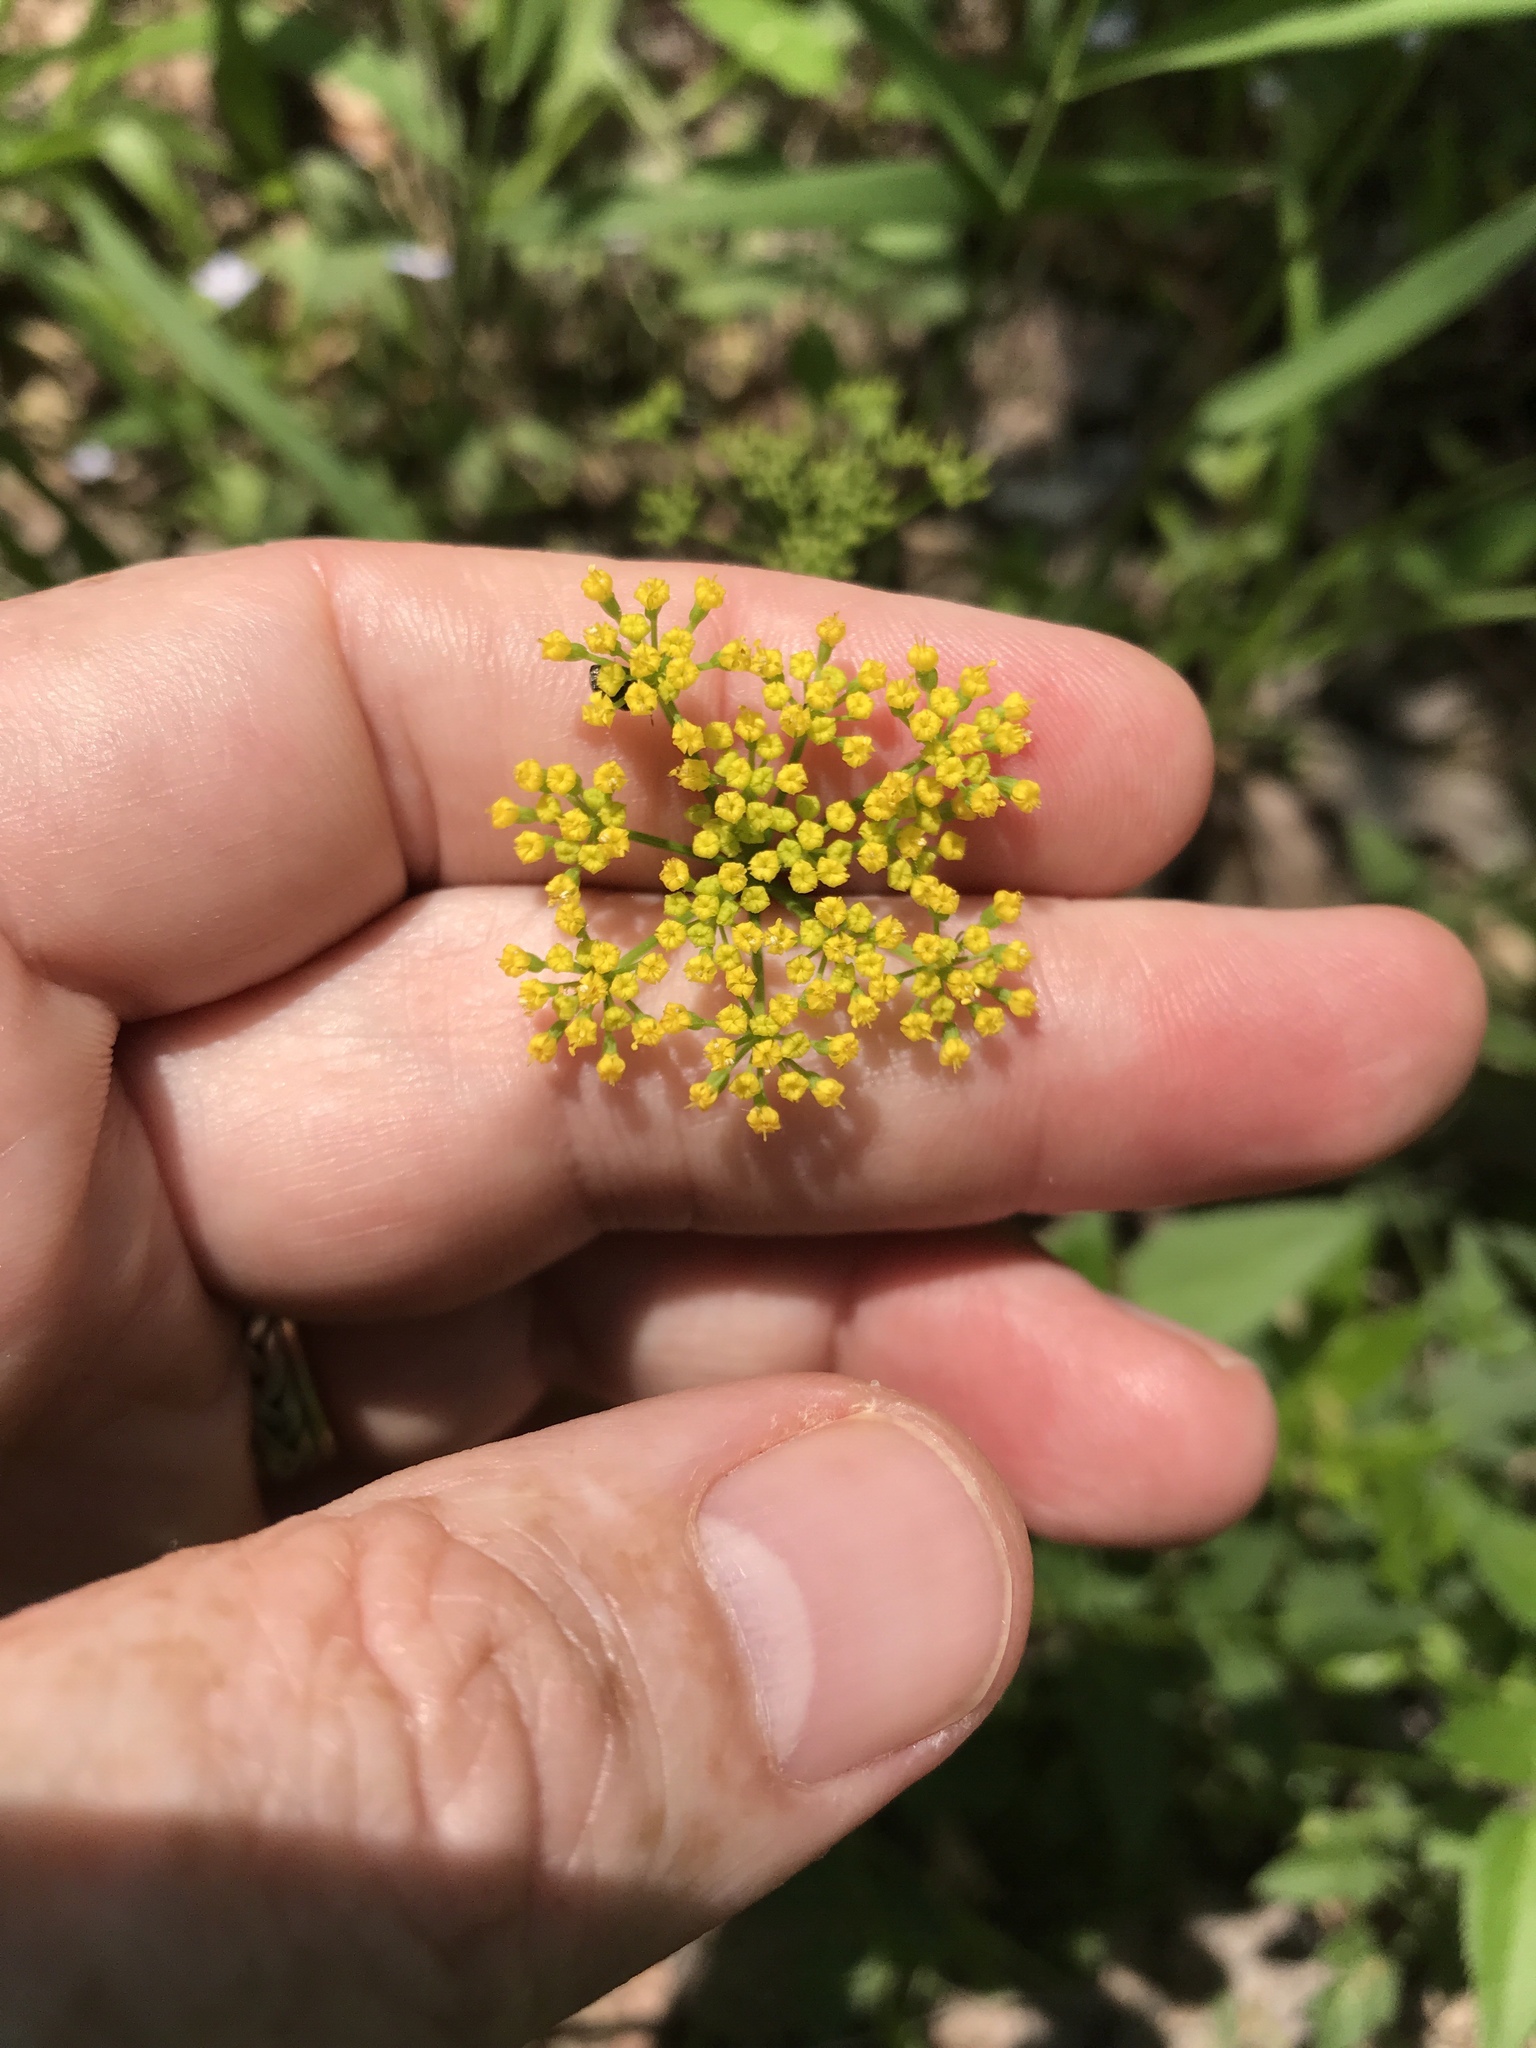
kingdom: Plantae
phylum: Tracheophyta
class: Magnoliopsida
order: Apiales
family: Apiaceae
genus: Zizia
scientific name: Zizia aurea
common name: Golden alexanders
